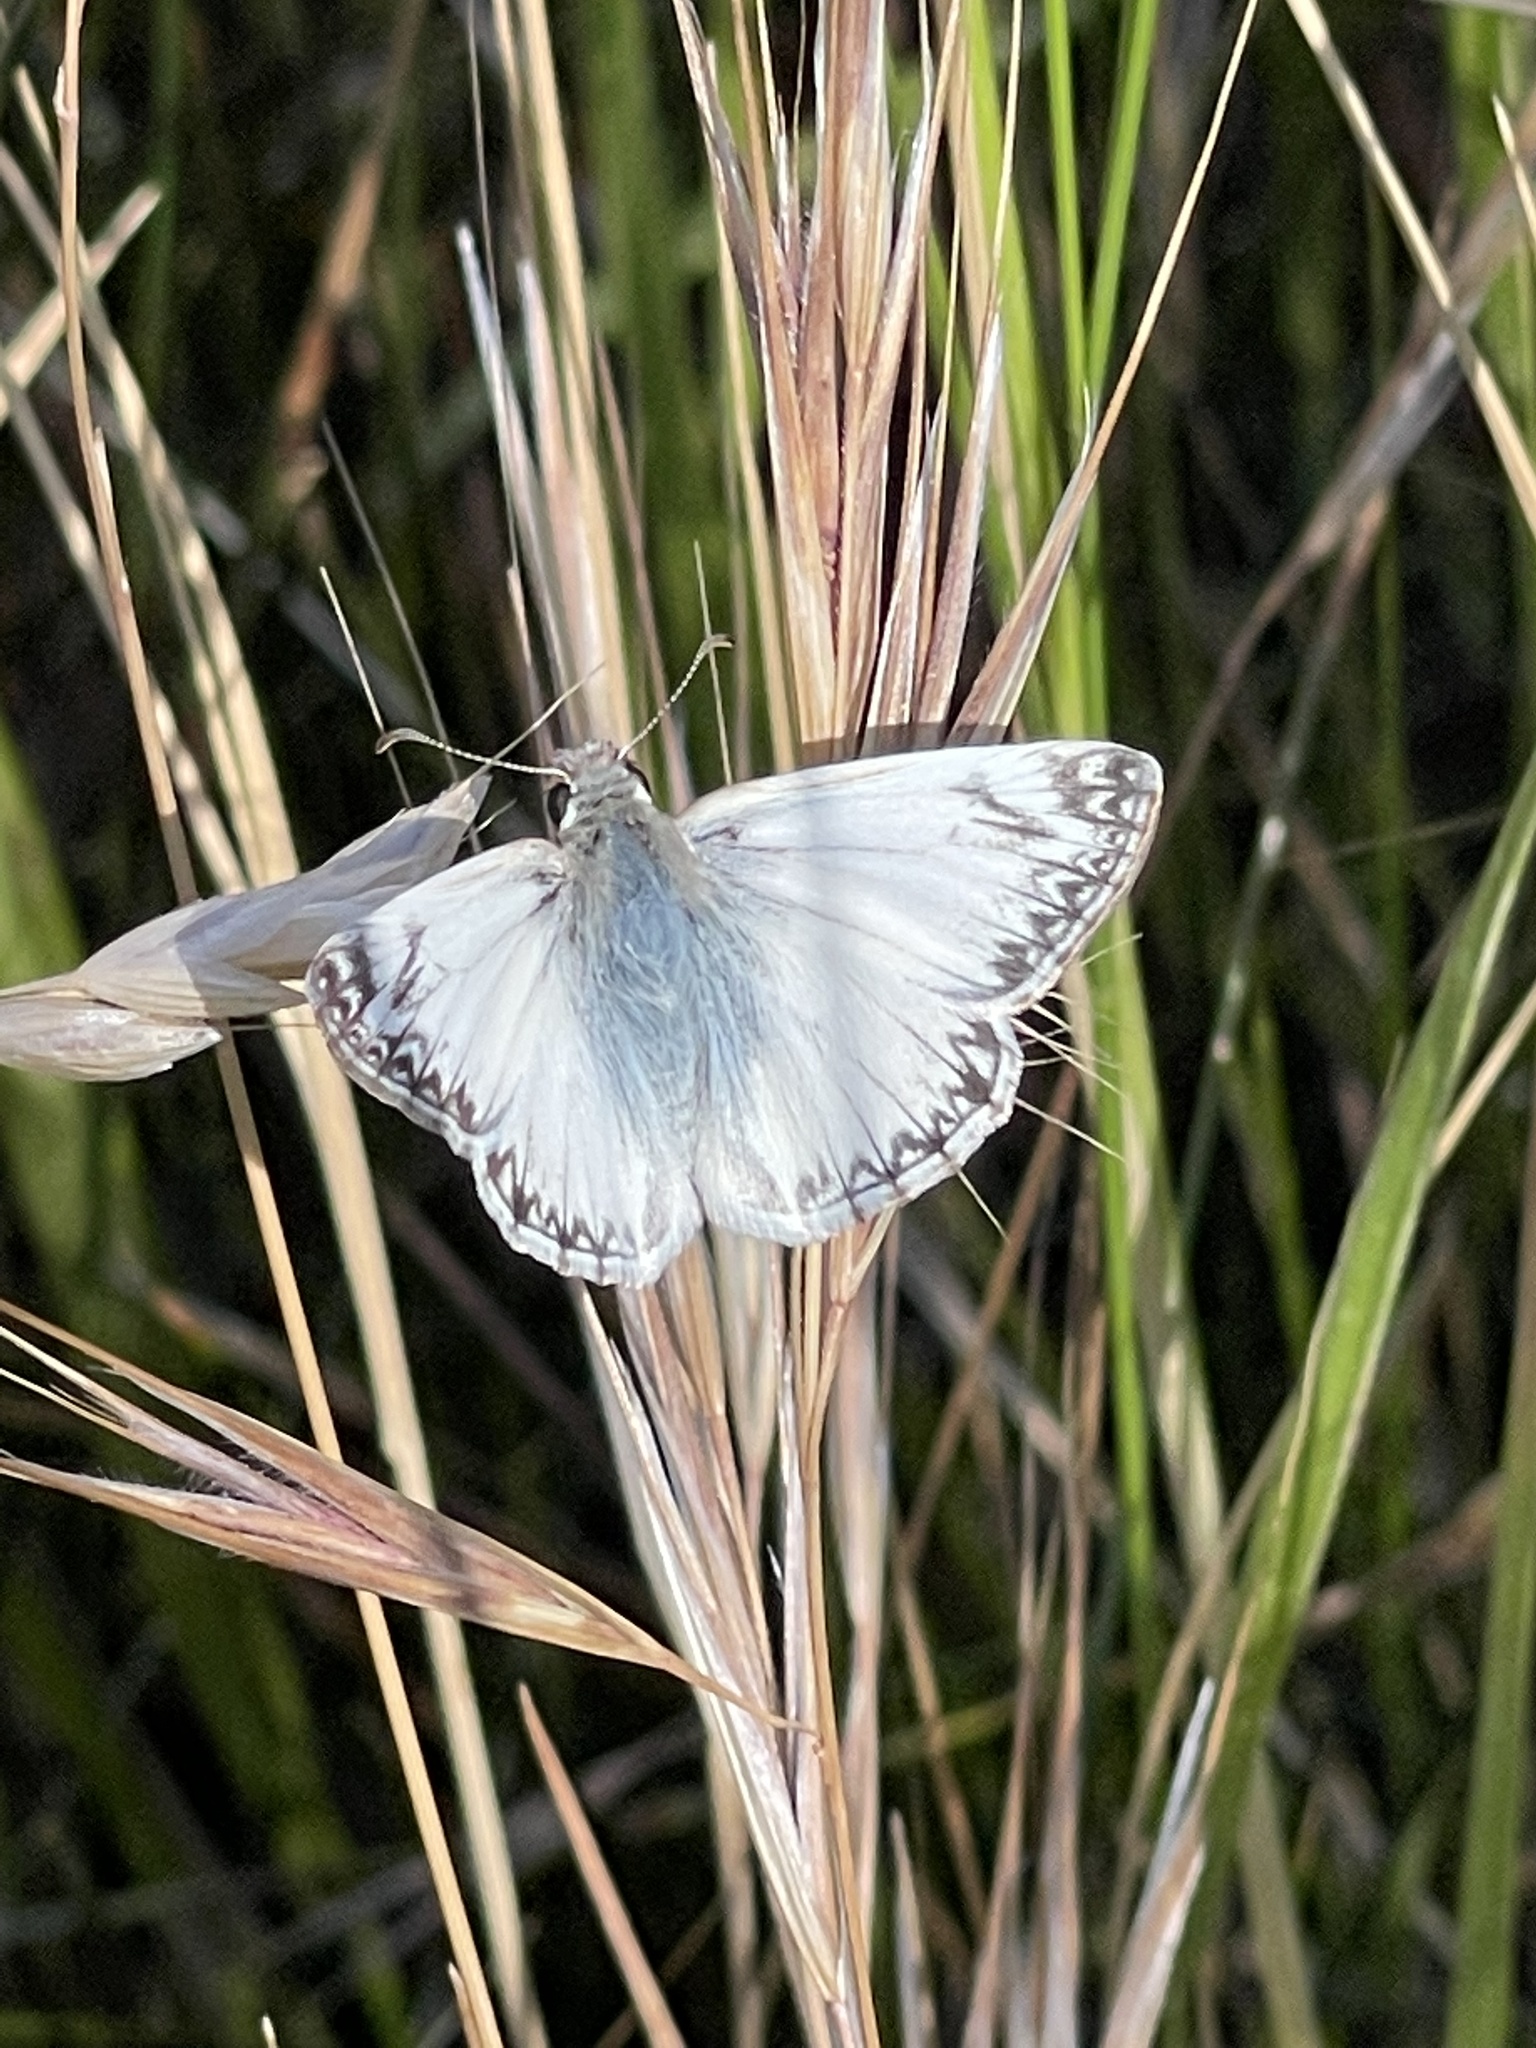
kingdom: Animalia
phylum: Arthropoda
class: Insecta
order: Lepidoptera
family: Hesperiidae
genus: Heliopetes
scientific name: Heliopetes ericetorum
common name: Northern white-skipper
